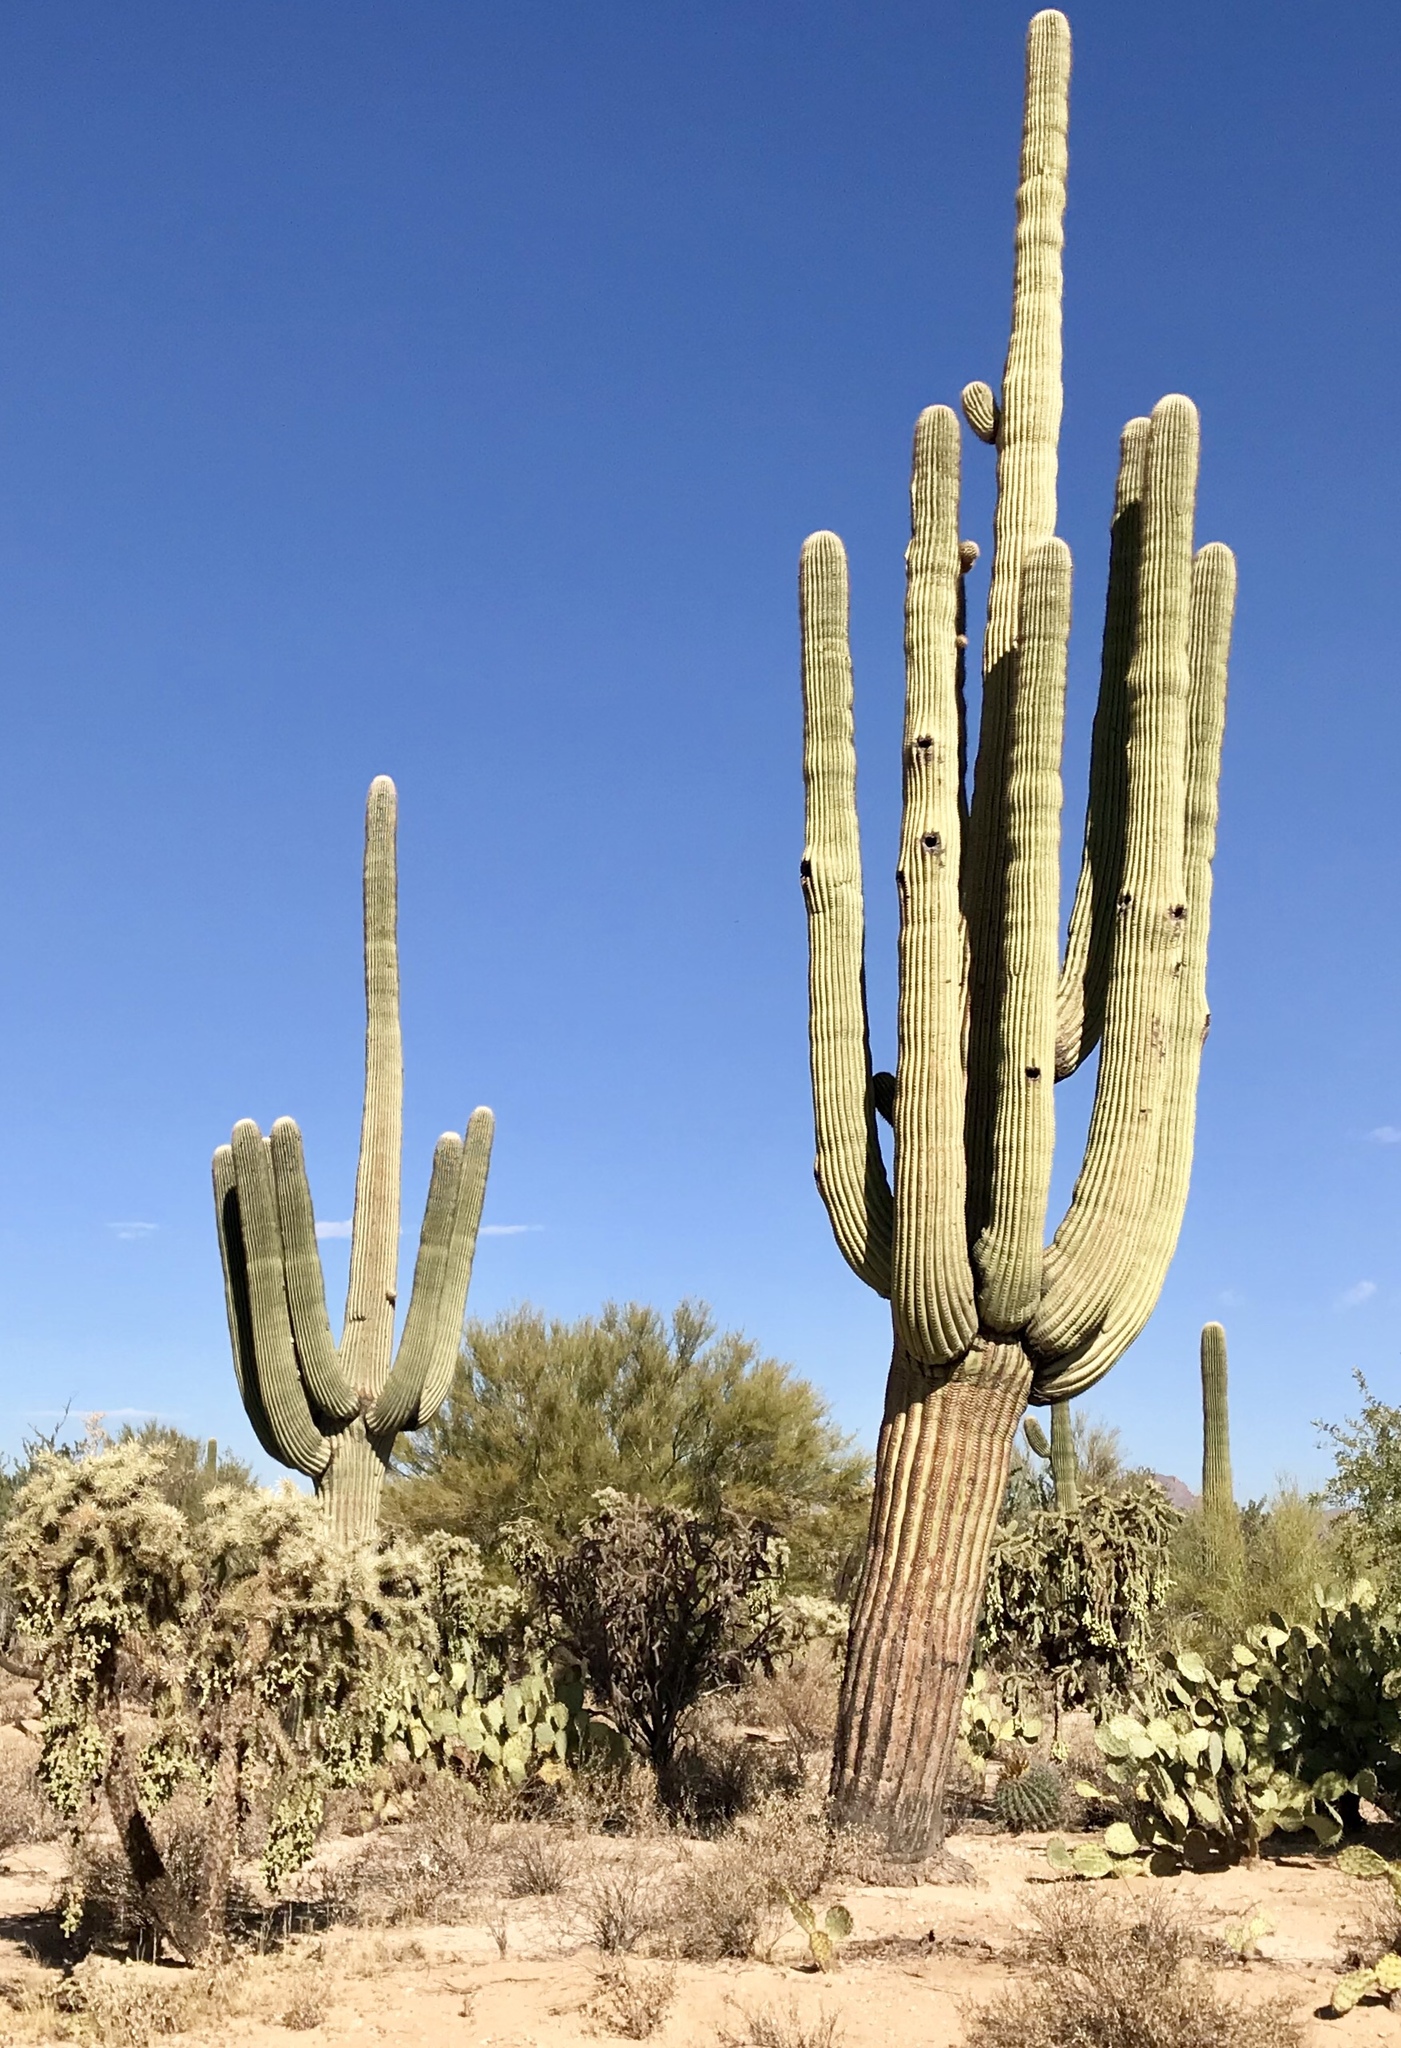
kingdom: Plantae
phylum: Tracheophyta
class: Magnoliopsida
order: Caryophyllales
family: Cactaceae
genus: Carnegiea
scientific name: Carnegiea gigantea
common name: Saguaro
